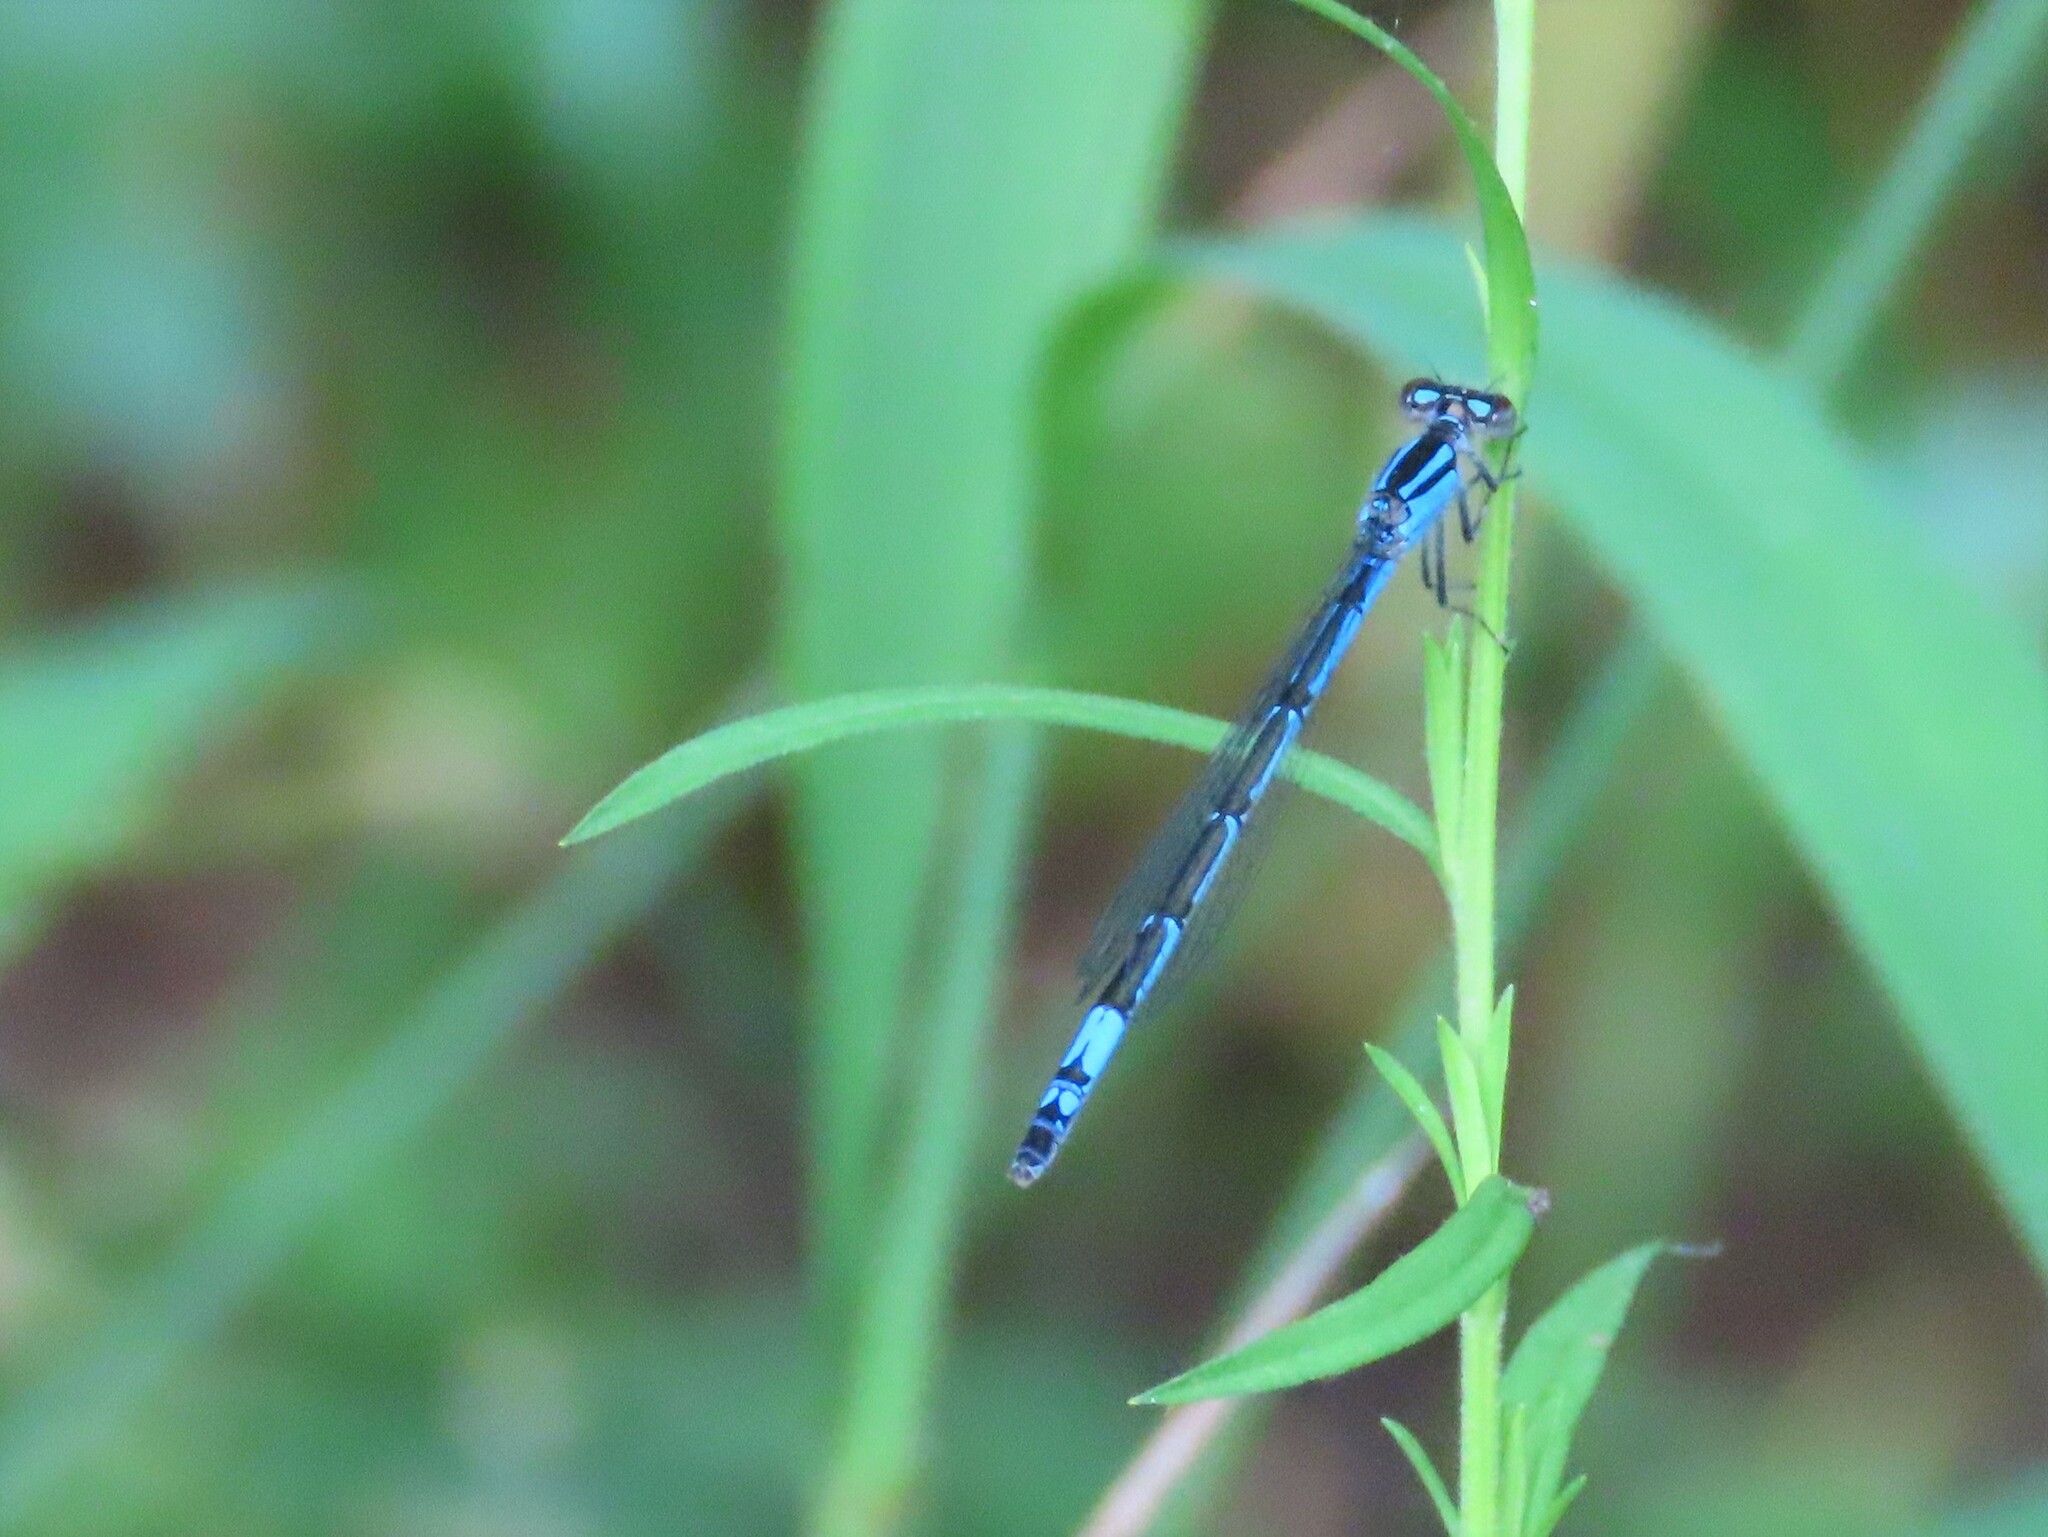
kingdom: Animalia
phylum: Arthropoda
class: Insecta
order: Odonata
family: Coenagrionidae
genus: Enallagma
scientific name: Enallagma aspersum
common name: Azure bluet
